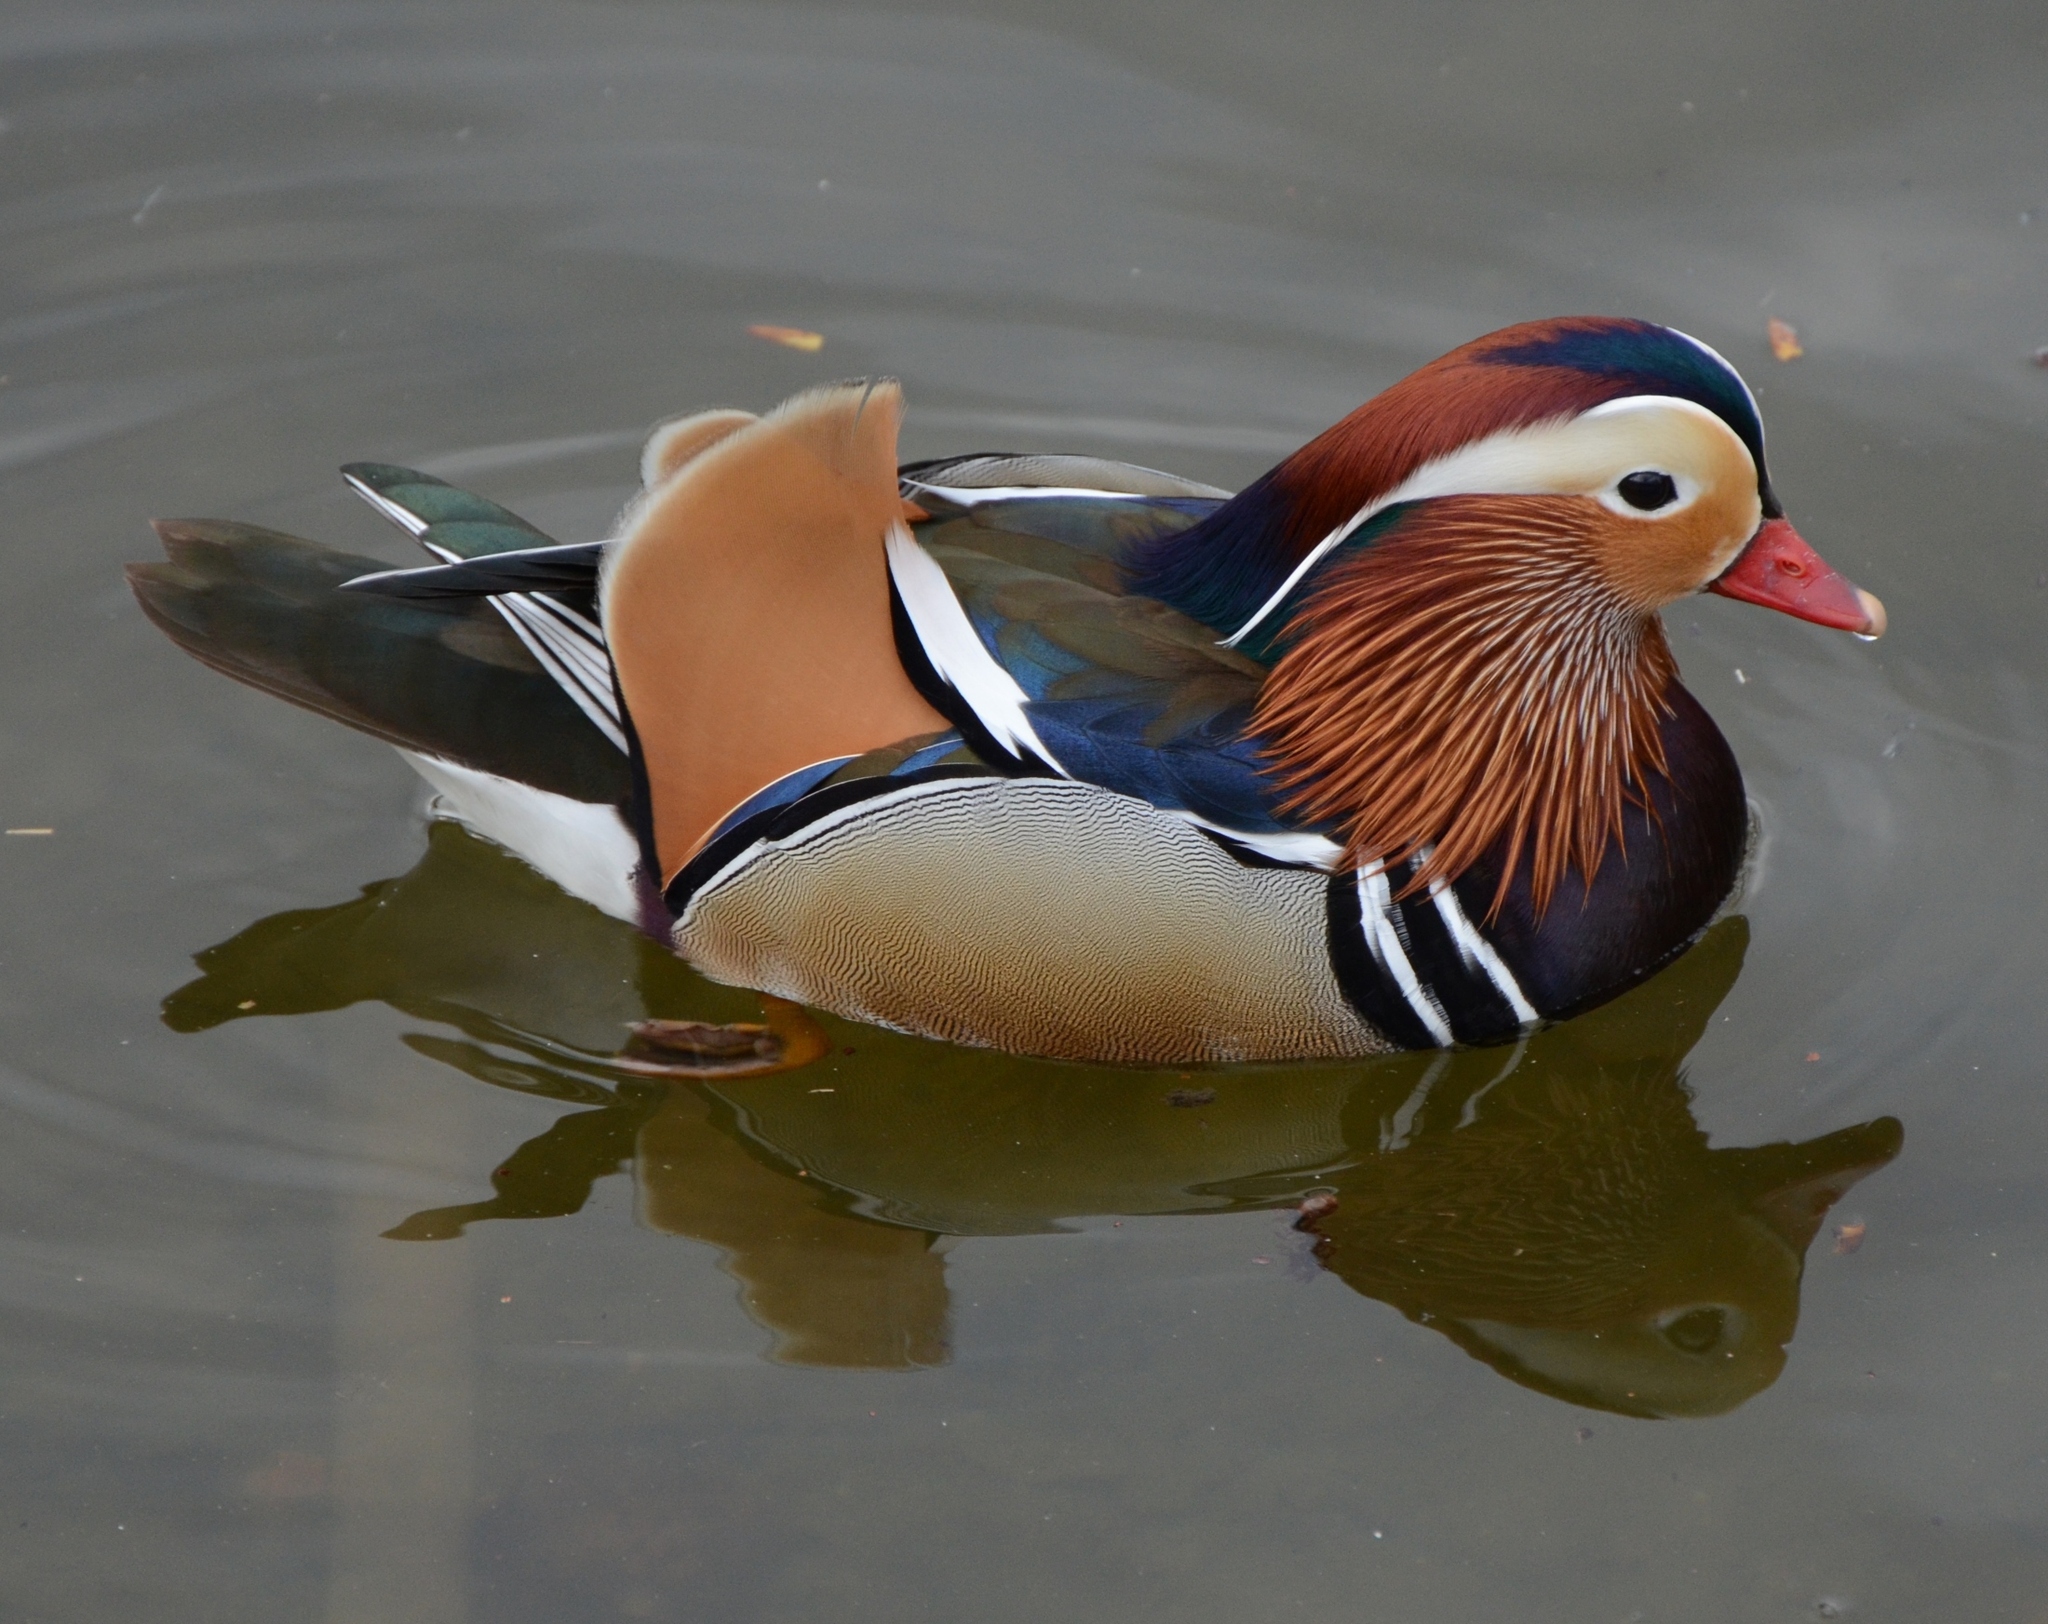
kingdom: Animalia
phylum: Chordata
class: Aves
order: Anseriformes
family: Anatidae
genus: Aix
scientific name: Aix galericulata
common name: Mandarin duck
